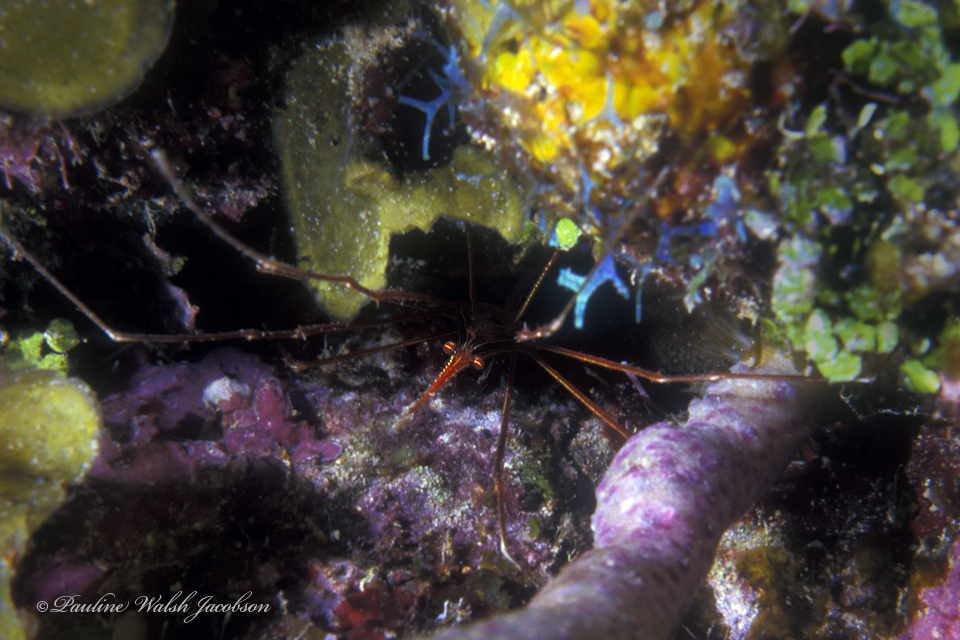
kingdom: Animalia
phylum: Arthropoda
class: Malacostraca
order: Decapoda
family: Inachoididae
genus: Stenorhynchus
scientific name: Stenorhynchus seticornis
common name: Arrow crab
